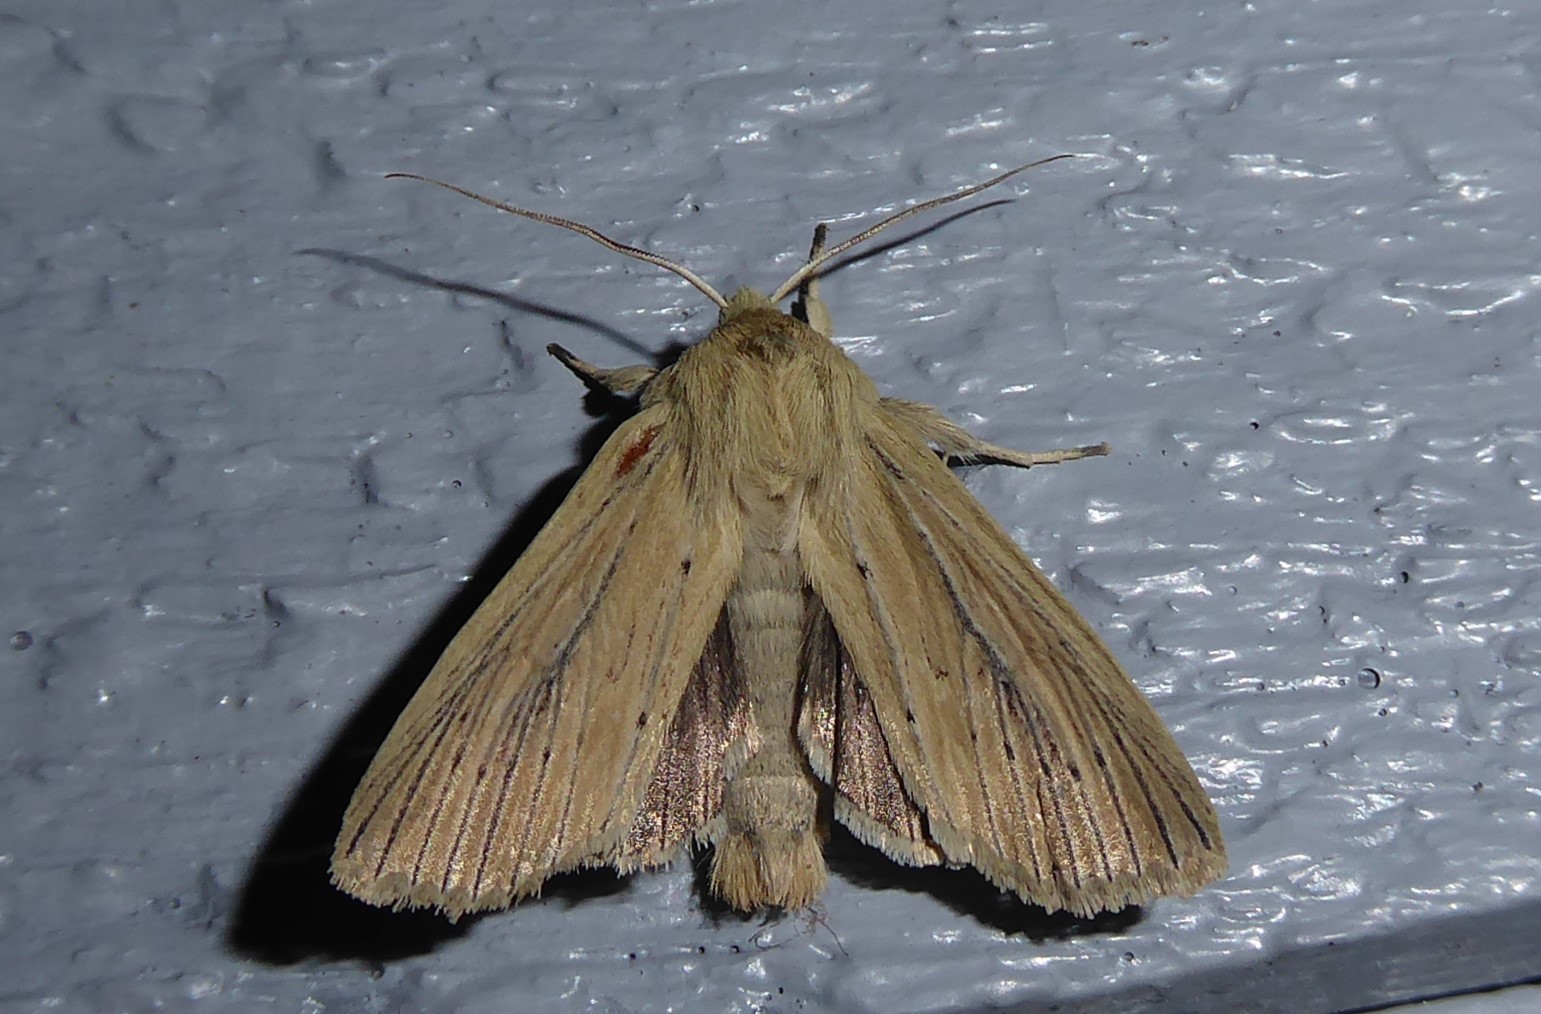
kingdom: Animalia
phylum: Arthropoda
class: Insecta
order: Lepidoptera
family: Noctuidae
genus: Ichneutica
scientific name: Ichneutica arotis
